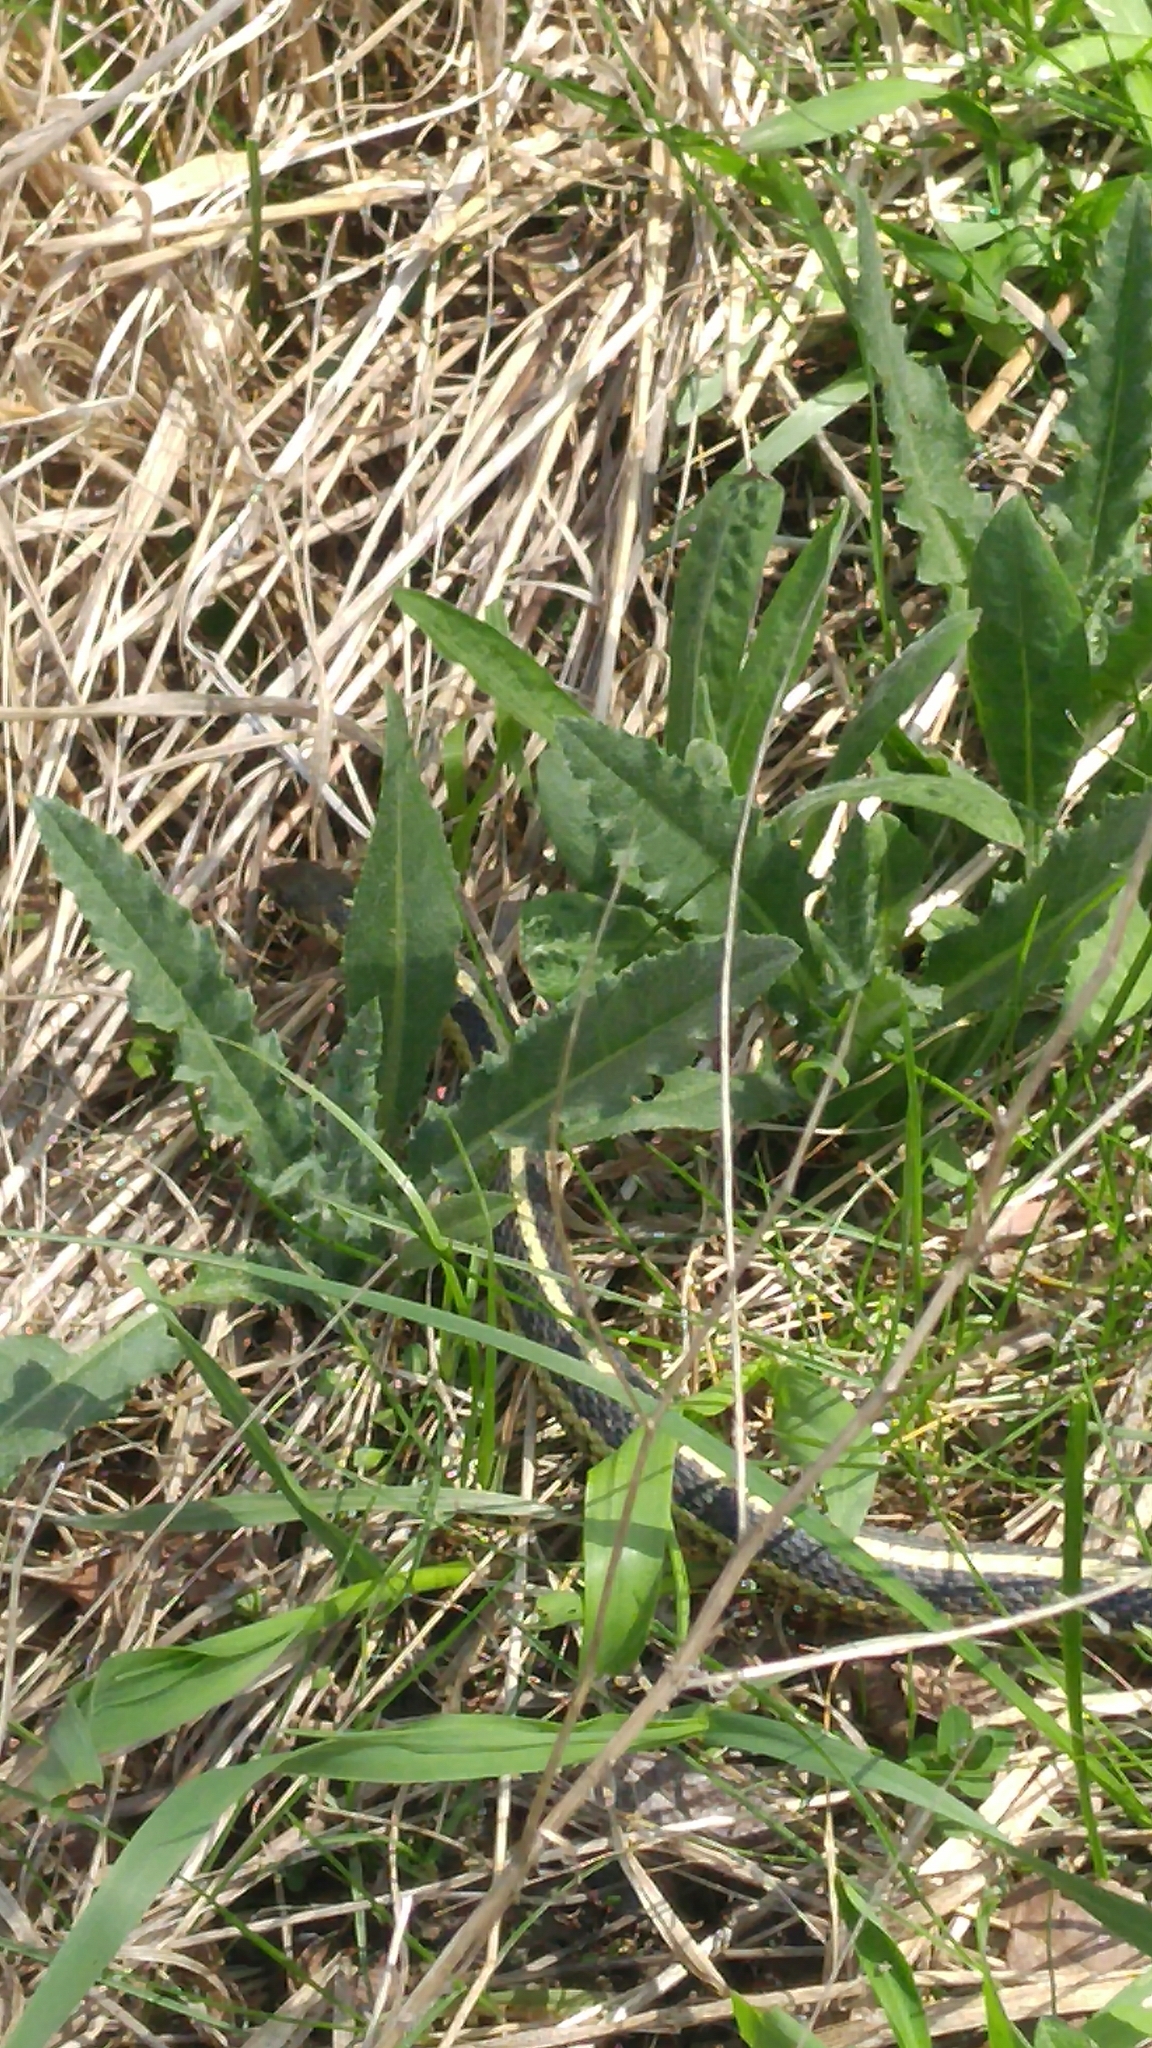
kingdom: Animalia
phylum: Chordata
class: Squamata
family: Colubridae
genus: Thamnophis
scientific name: Thamnophis sirtalis
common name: Common garter snake
